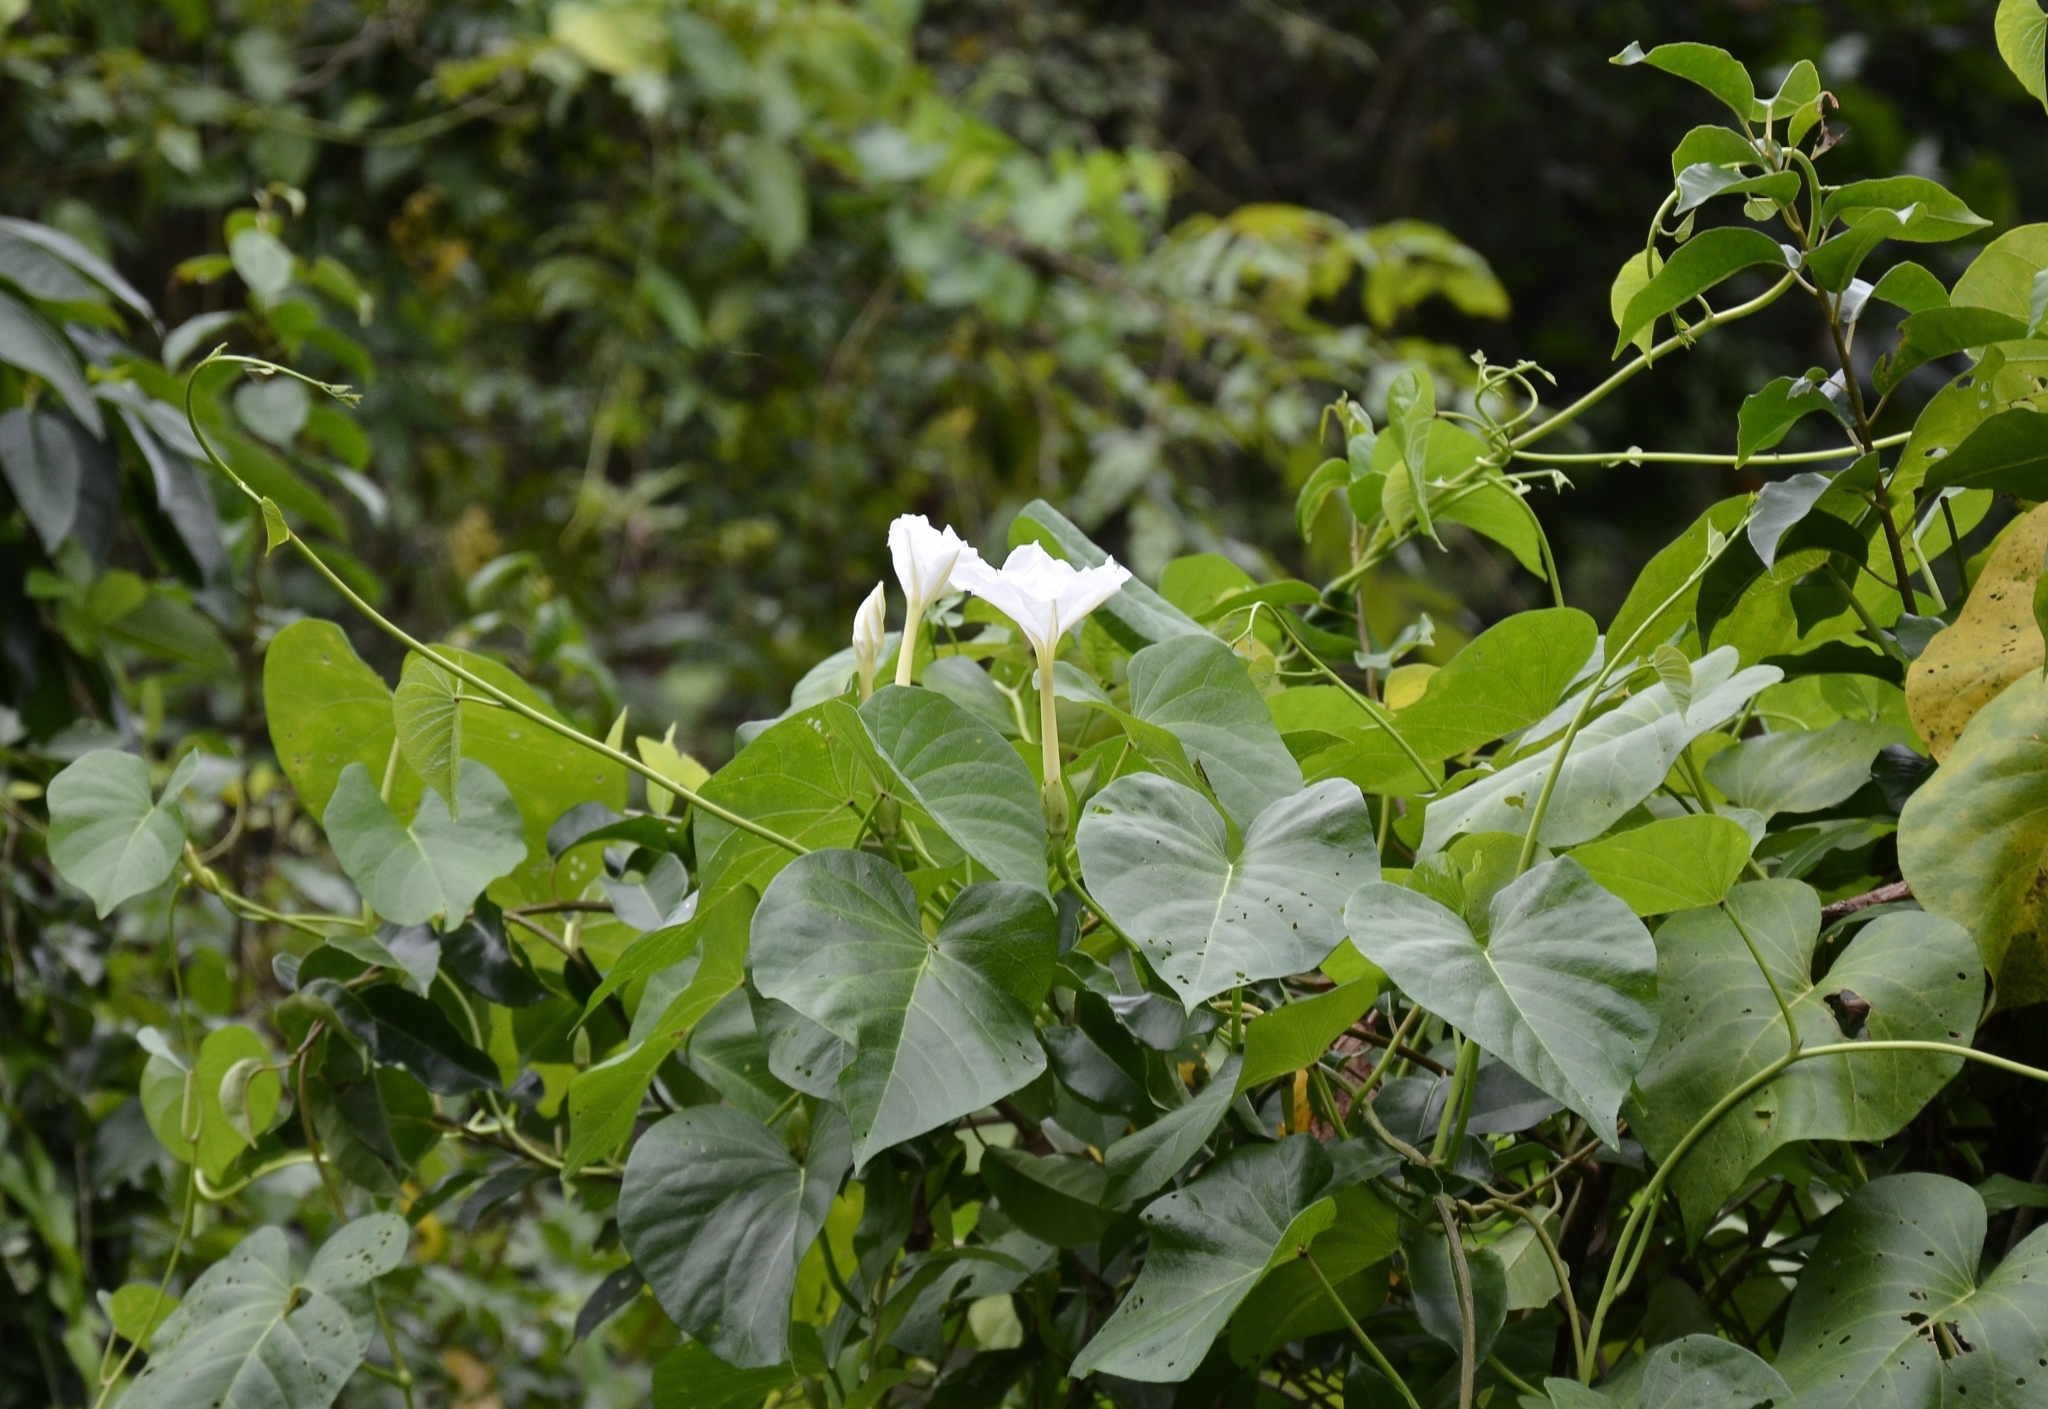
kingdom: Plantae
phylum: Tracheophyta
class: Magnoliopsida
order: Solanales
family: Convolvulaceae
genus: Ipomoea
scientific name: Ipomoea violacea
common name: Beach moonflower
